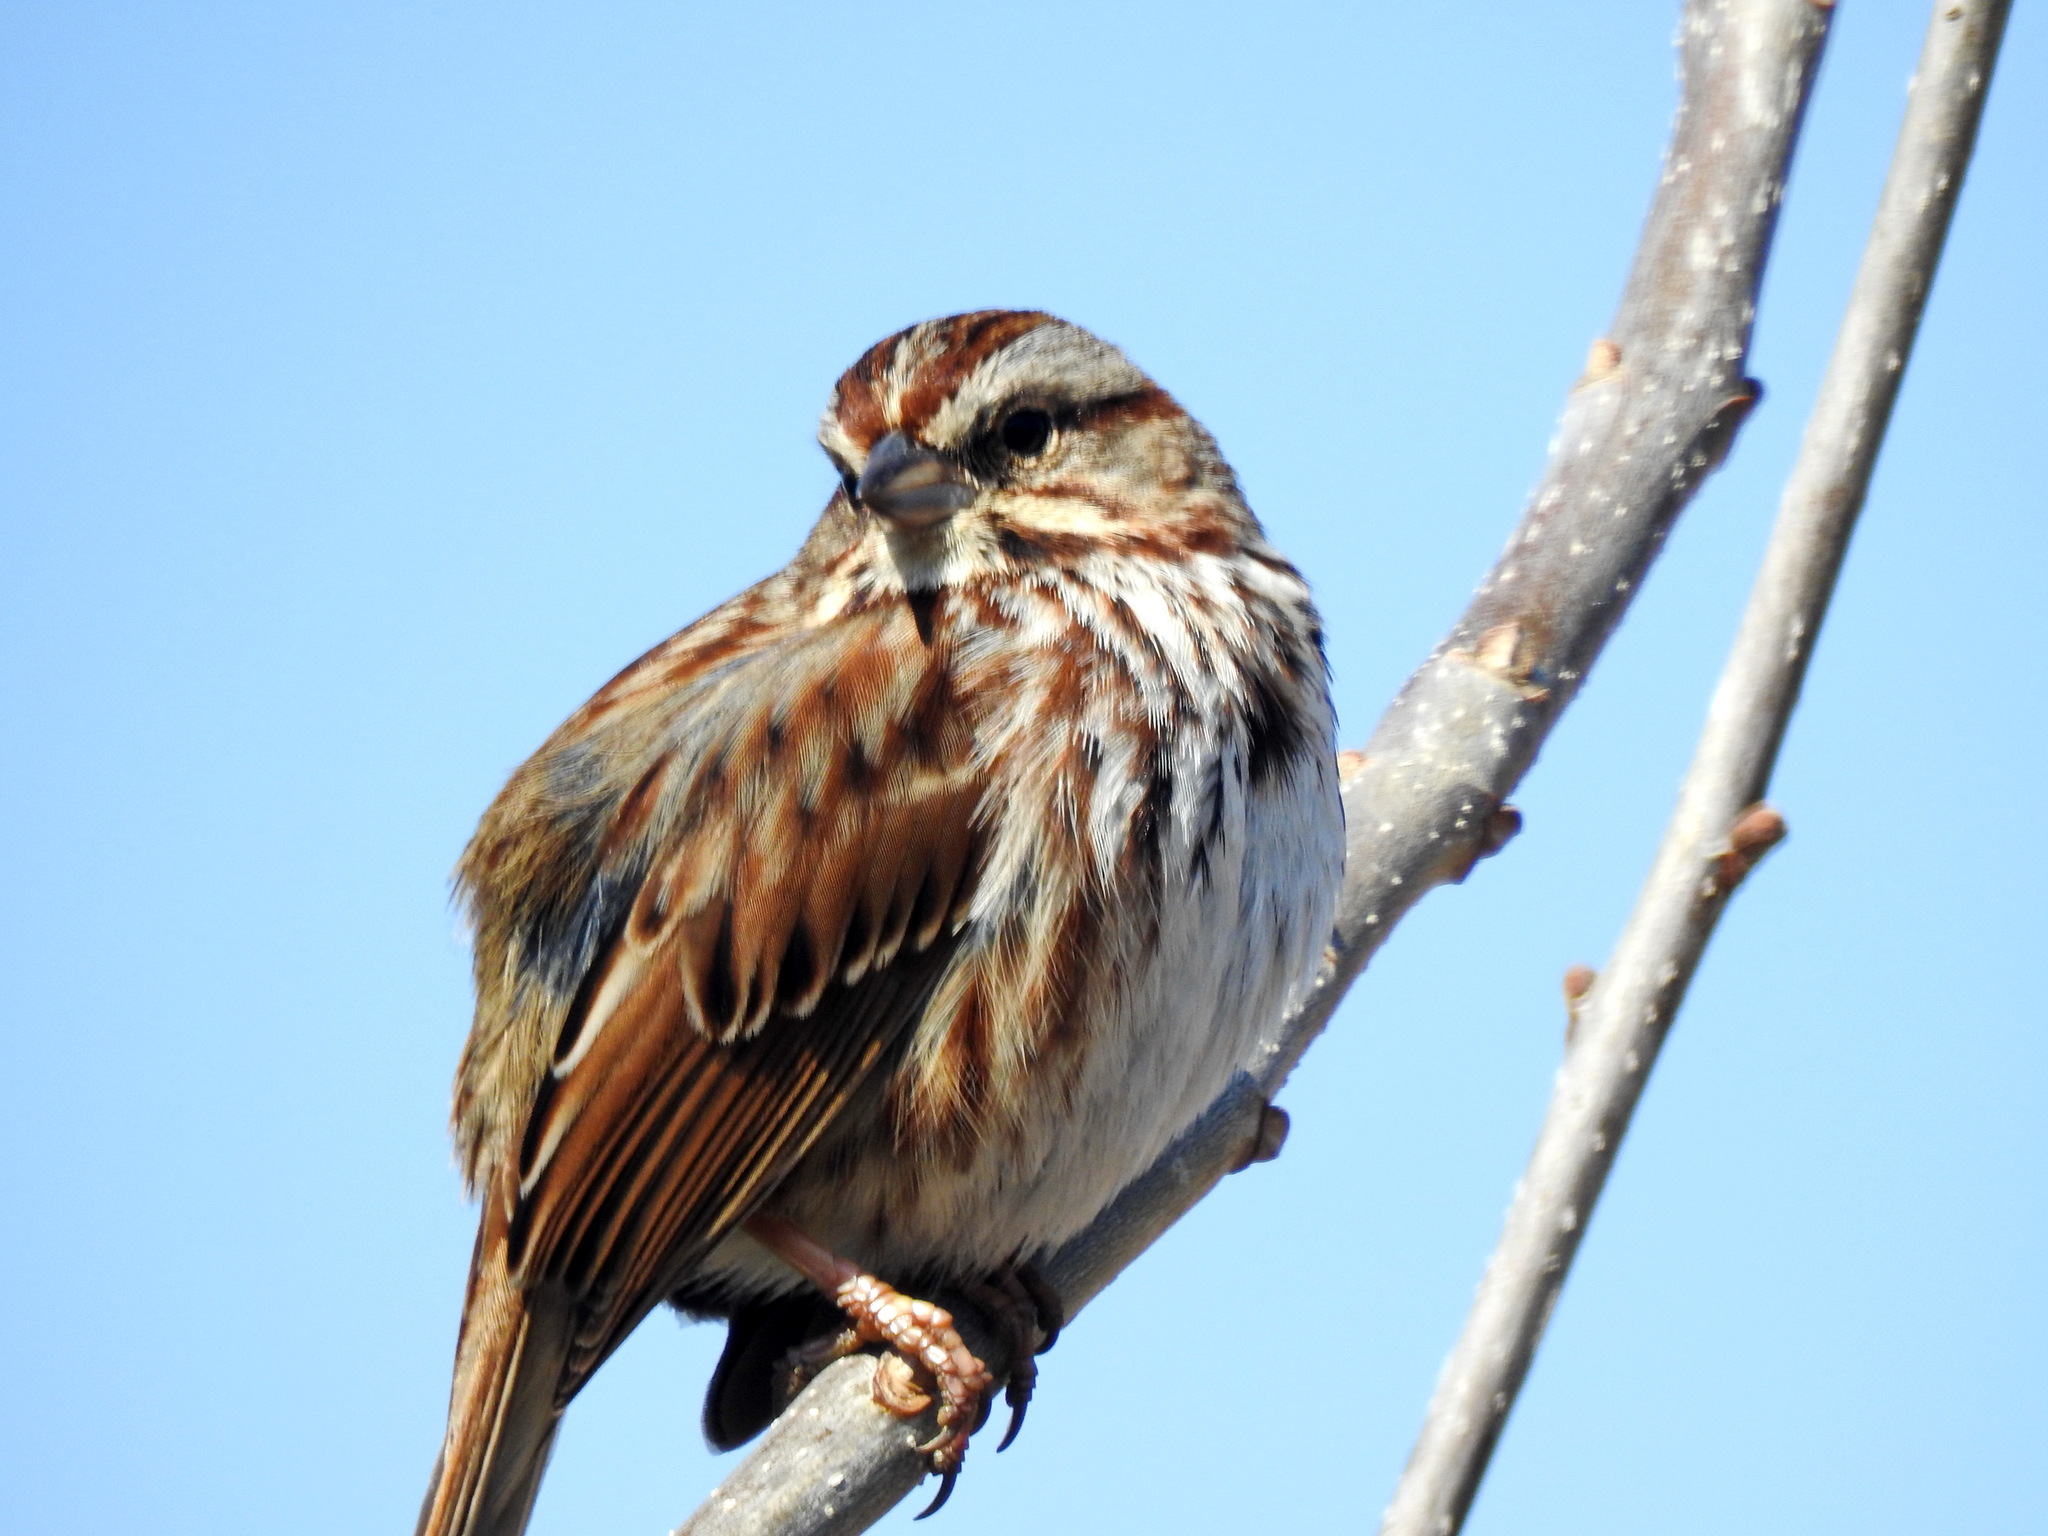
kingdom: Animalia
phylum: Chordata
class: Aves
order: Passeriformes
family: Passerellidae
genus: Melospiza
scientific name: Melospiza melodia
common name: Song sparrow
